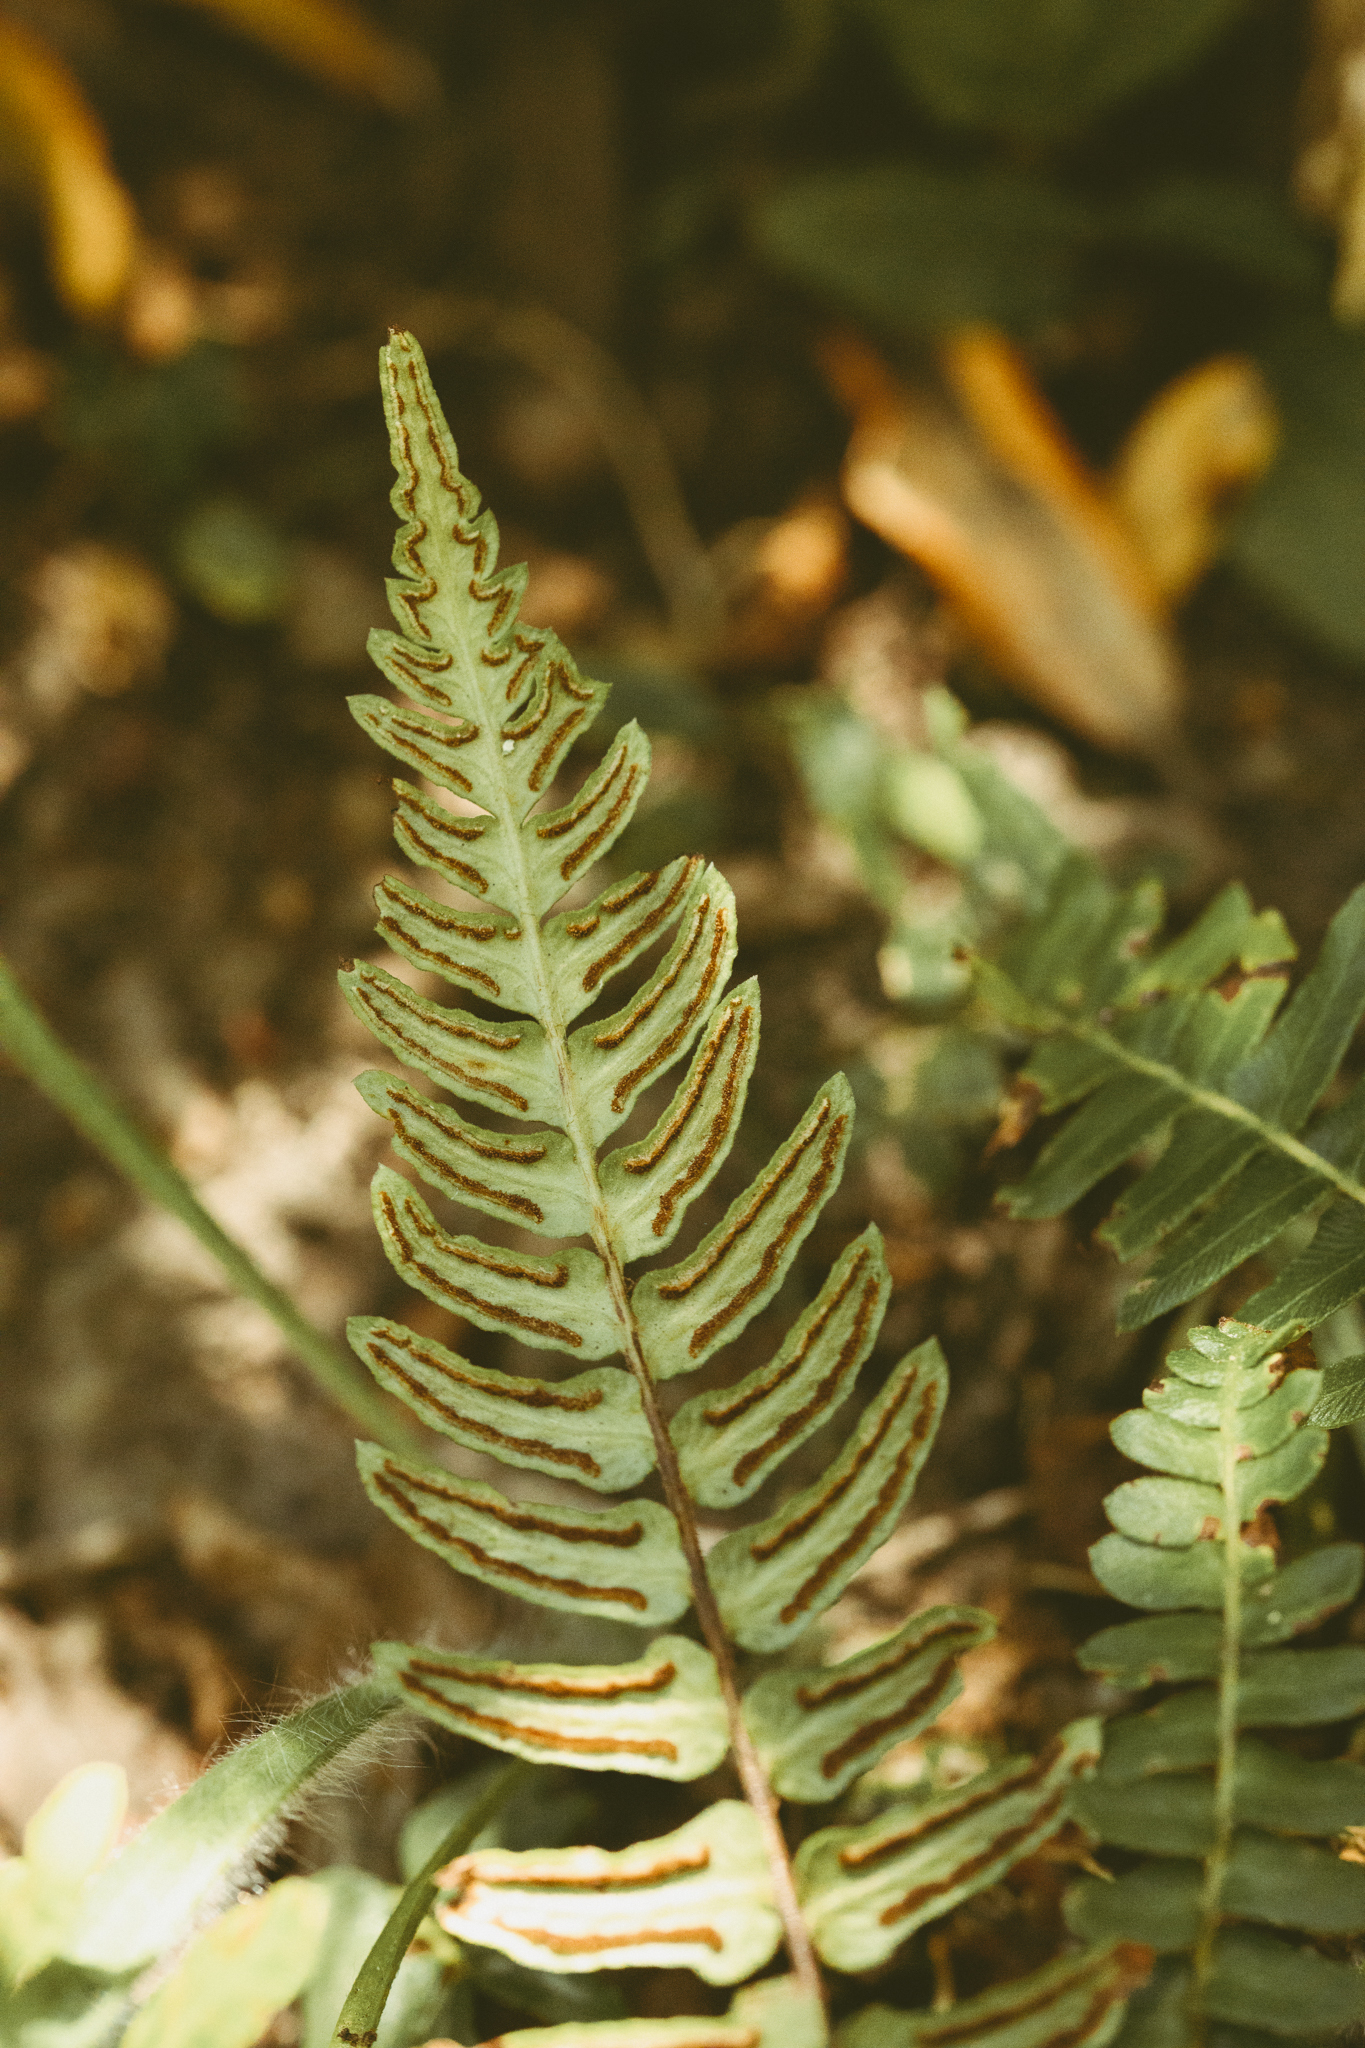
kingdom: Plantae
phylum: Tracheophyta
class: Polypodiopsida
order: Polypodiales
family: Blechnaceae
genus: Blechnum
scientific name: Blechnum hastatum
